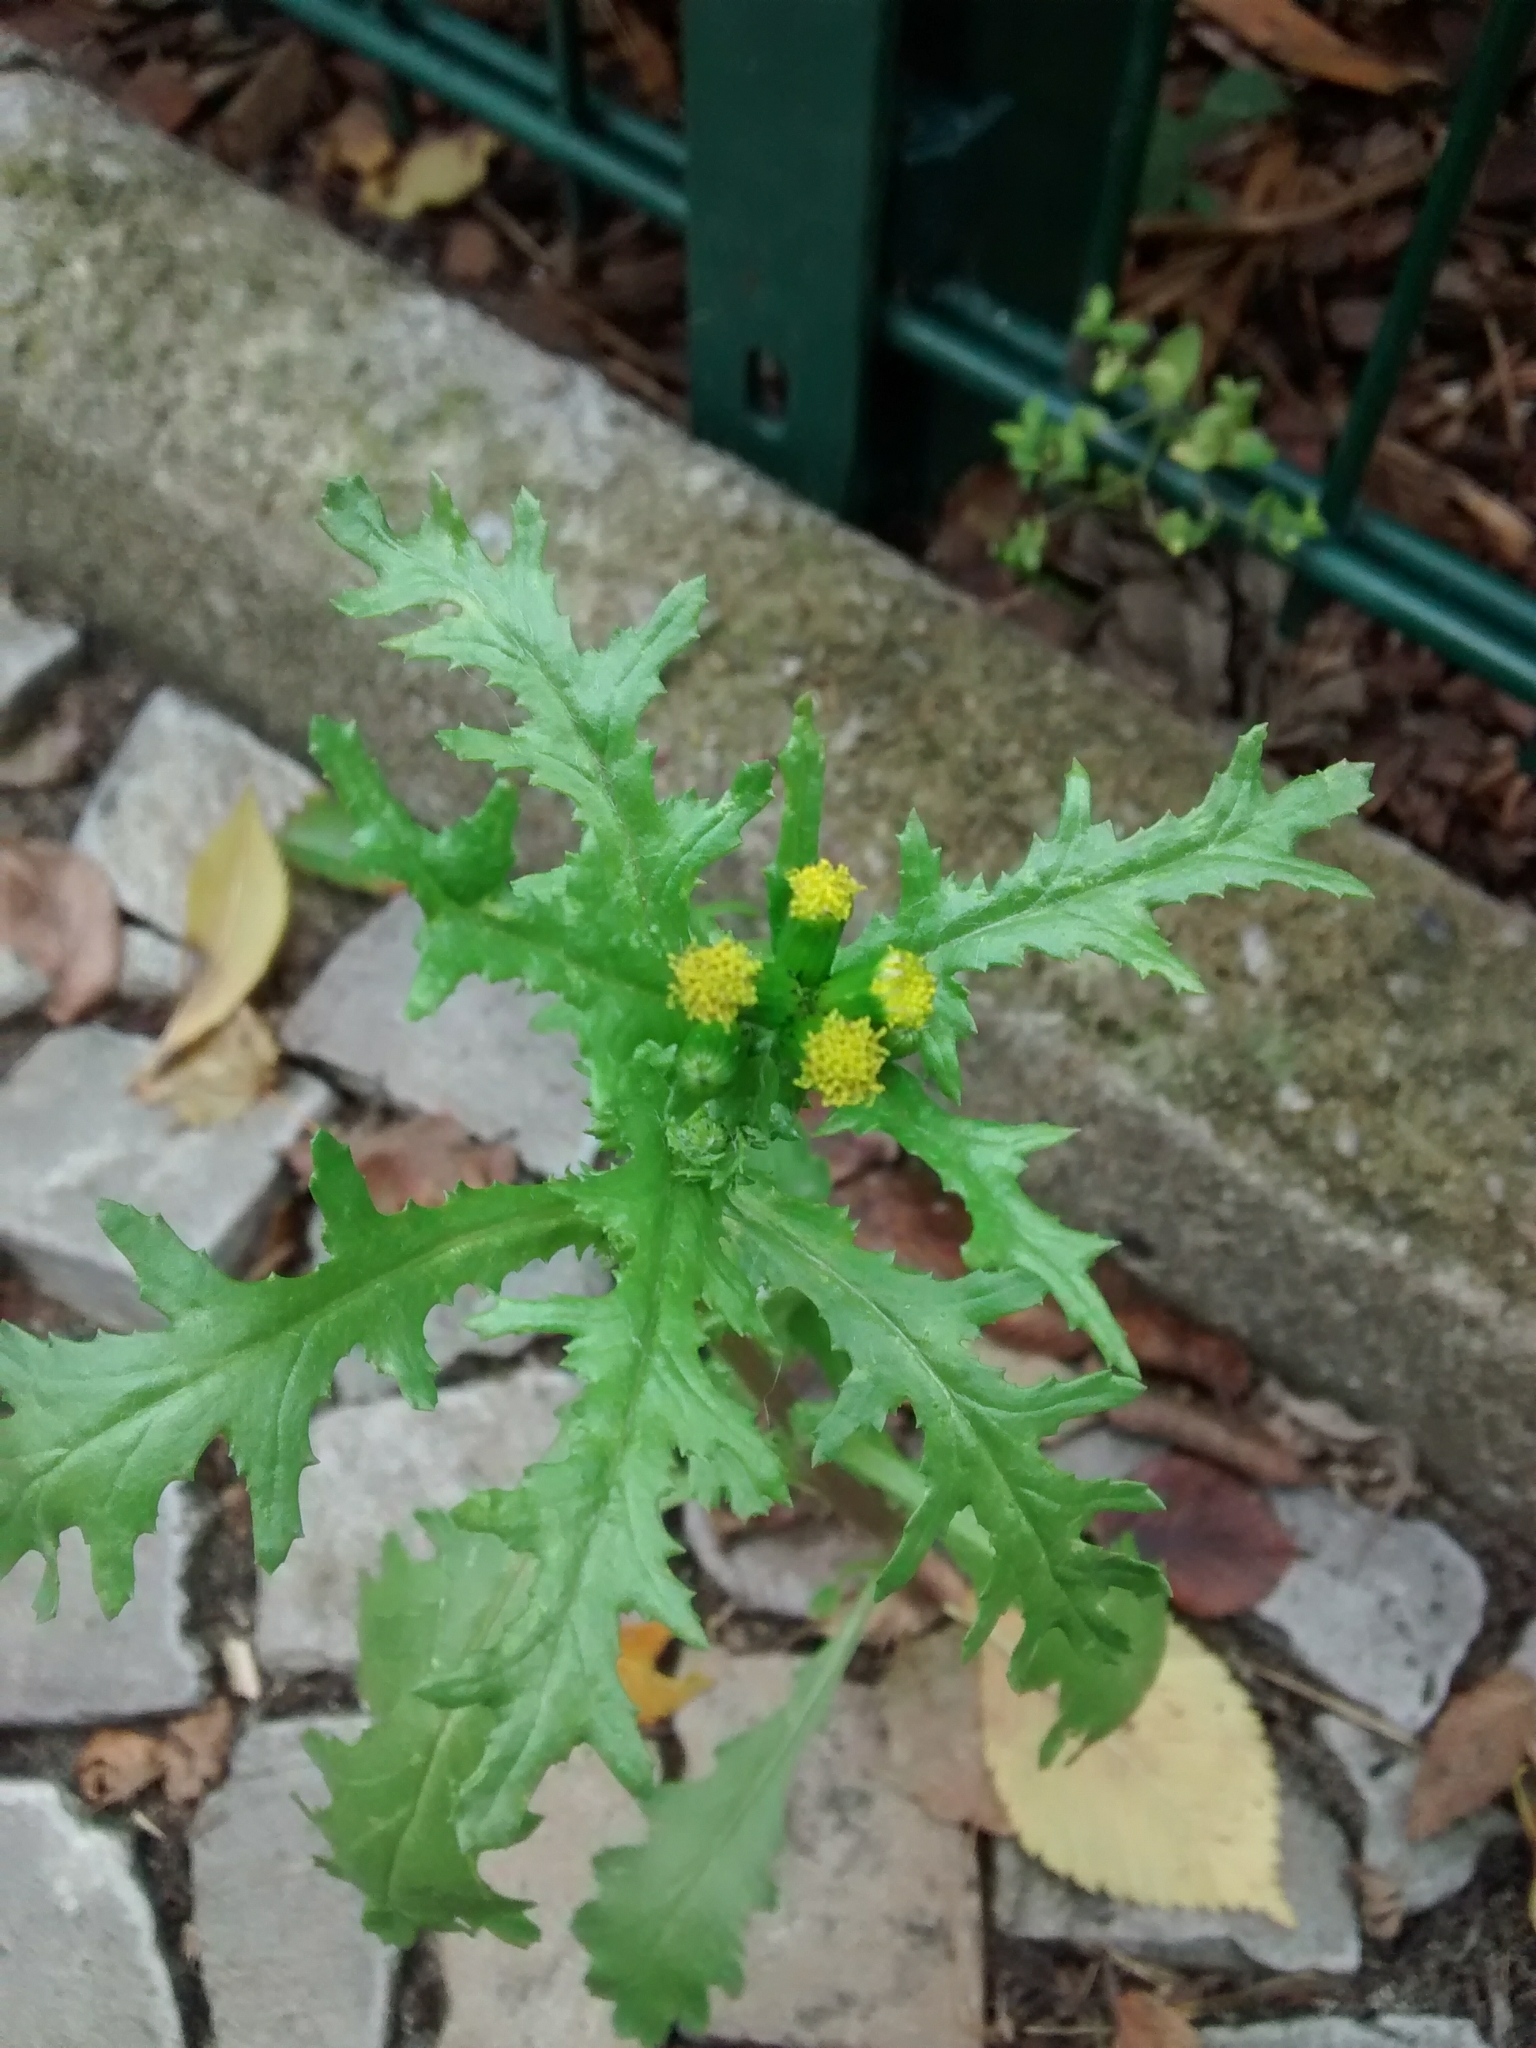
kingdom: Plantae
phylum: Tracheophyta
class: Magnoliopsida
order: Asterales
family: Asteraceae
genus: Senecio
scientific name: Senecio vulgaris
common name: Old-man-in-the-spring
